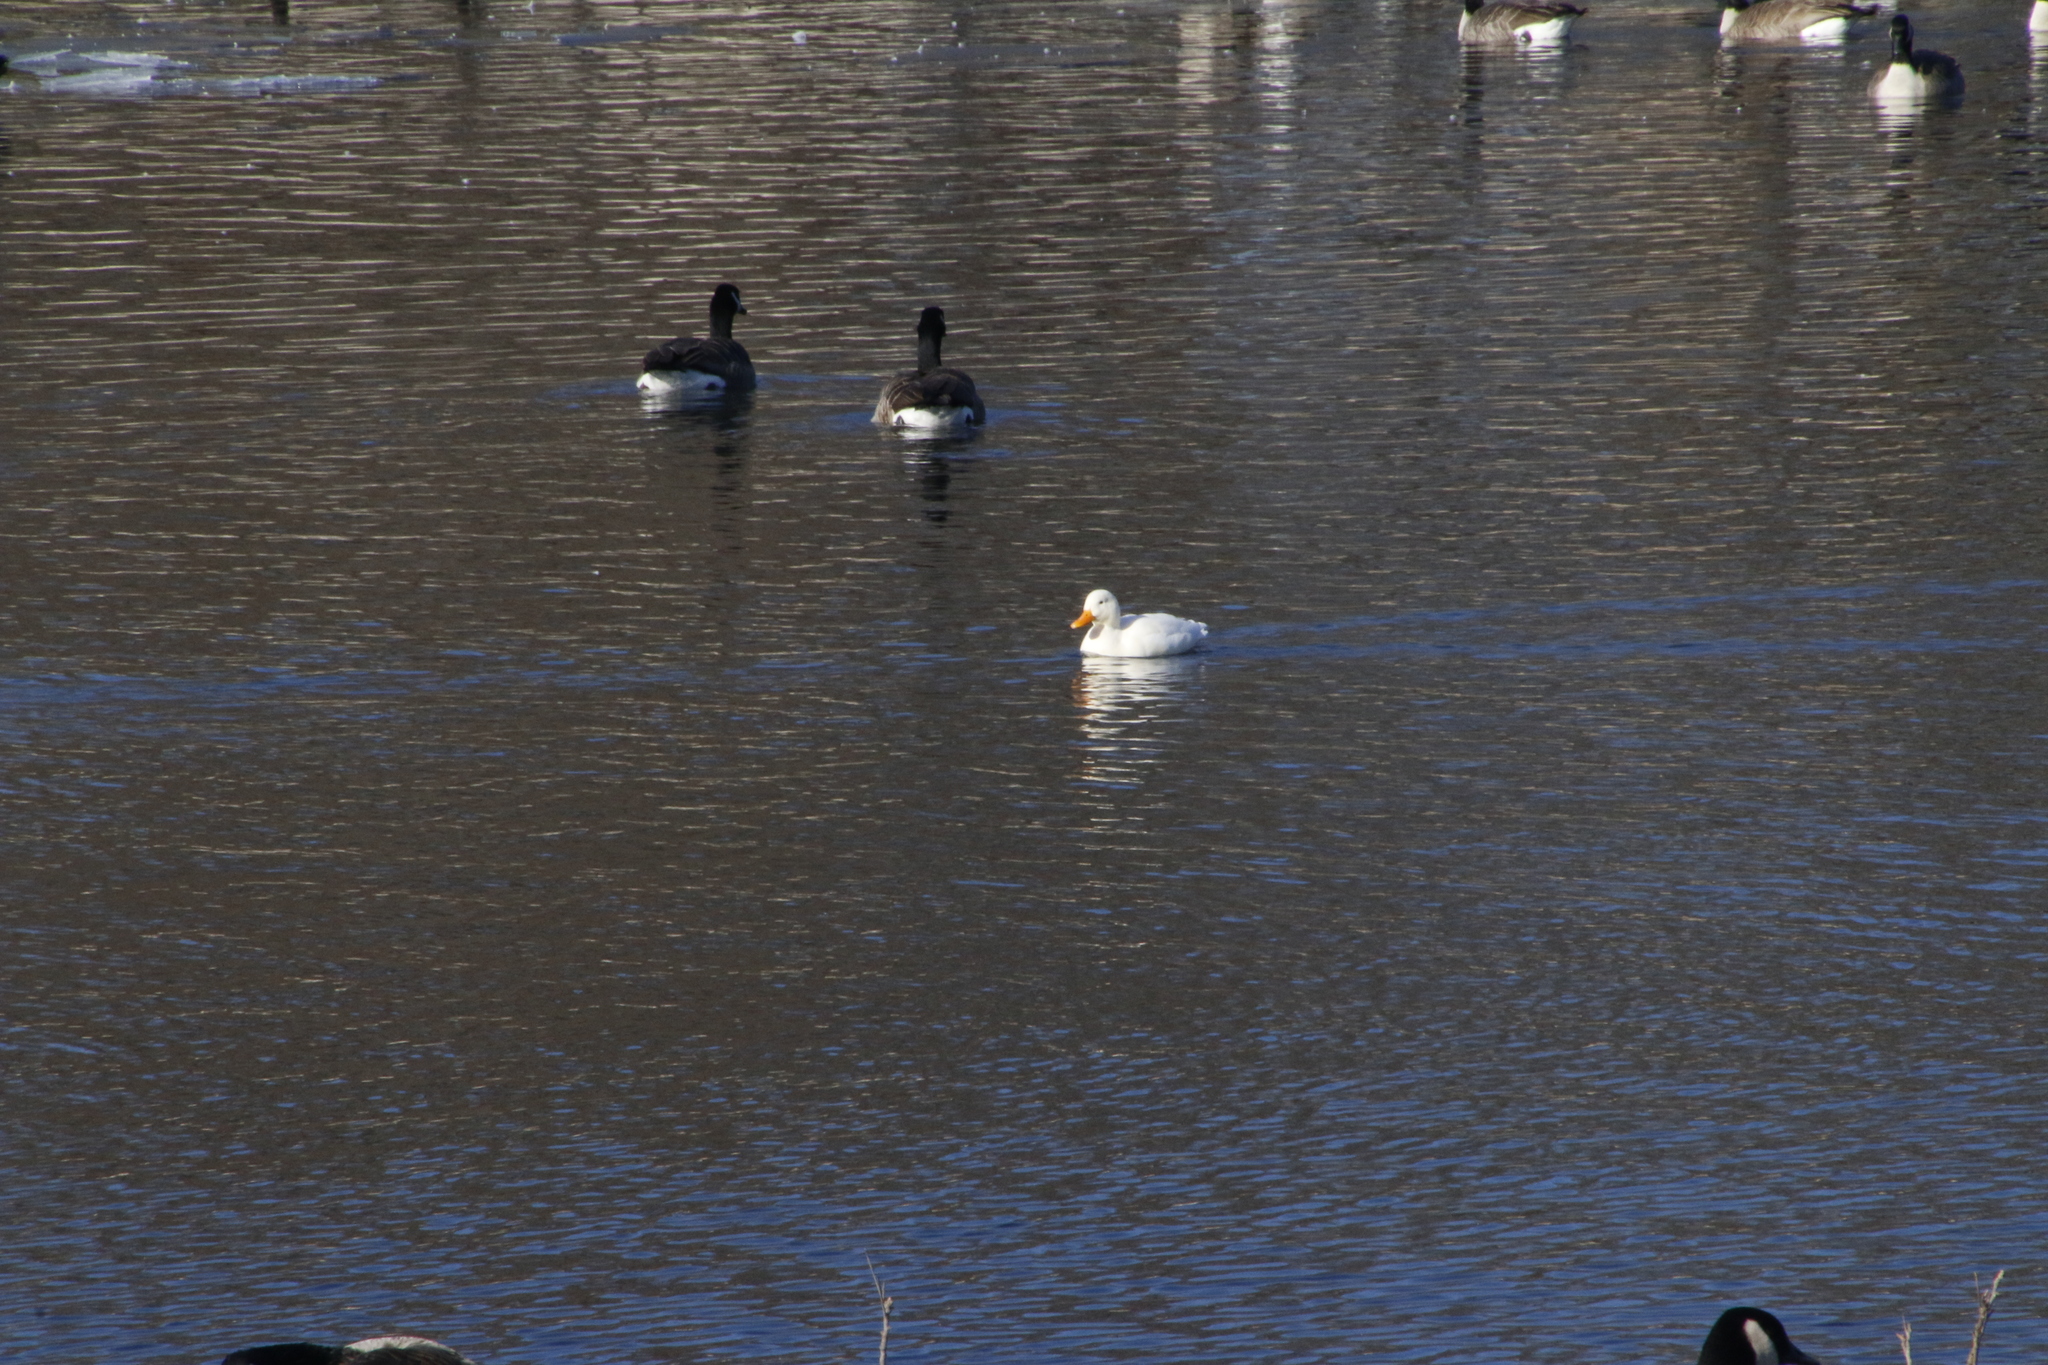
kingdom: Animalia
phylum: Chordata
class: Aves
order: Anseriformes
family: Anatidae
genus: Anas
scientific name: Anas platyrhynchos
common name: Mallard
